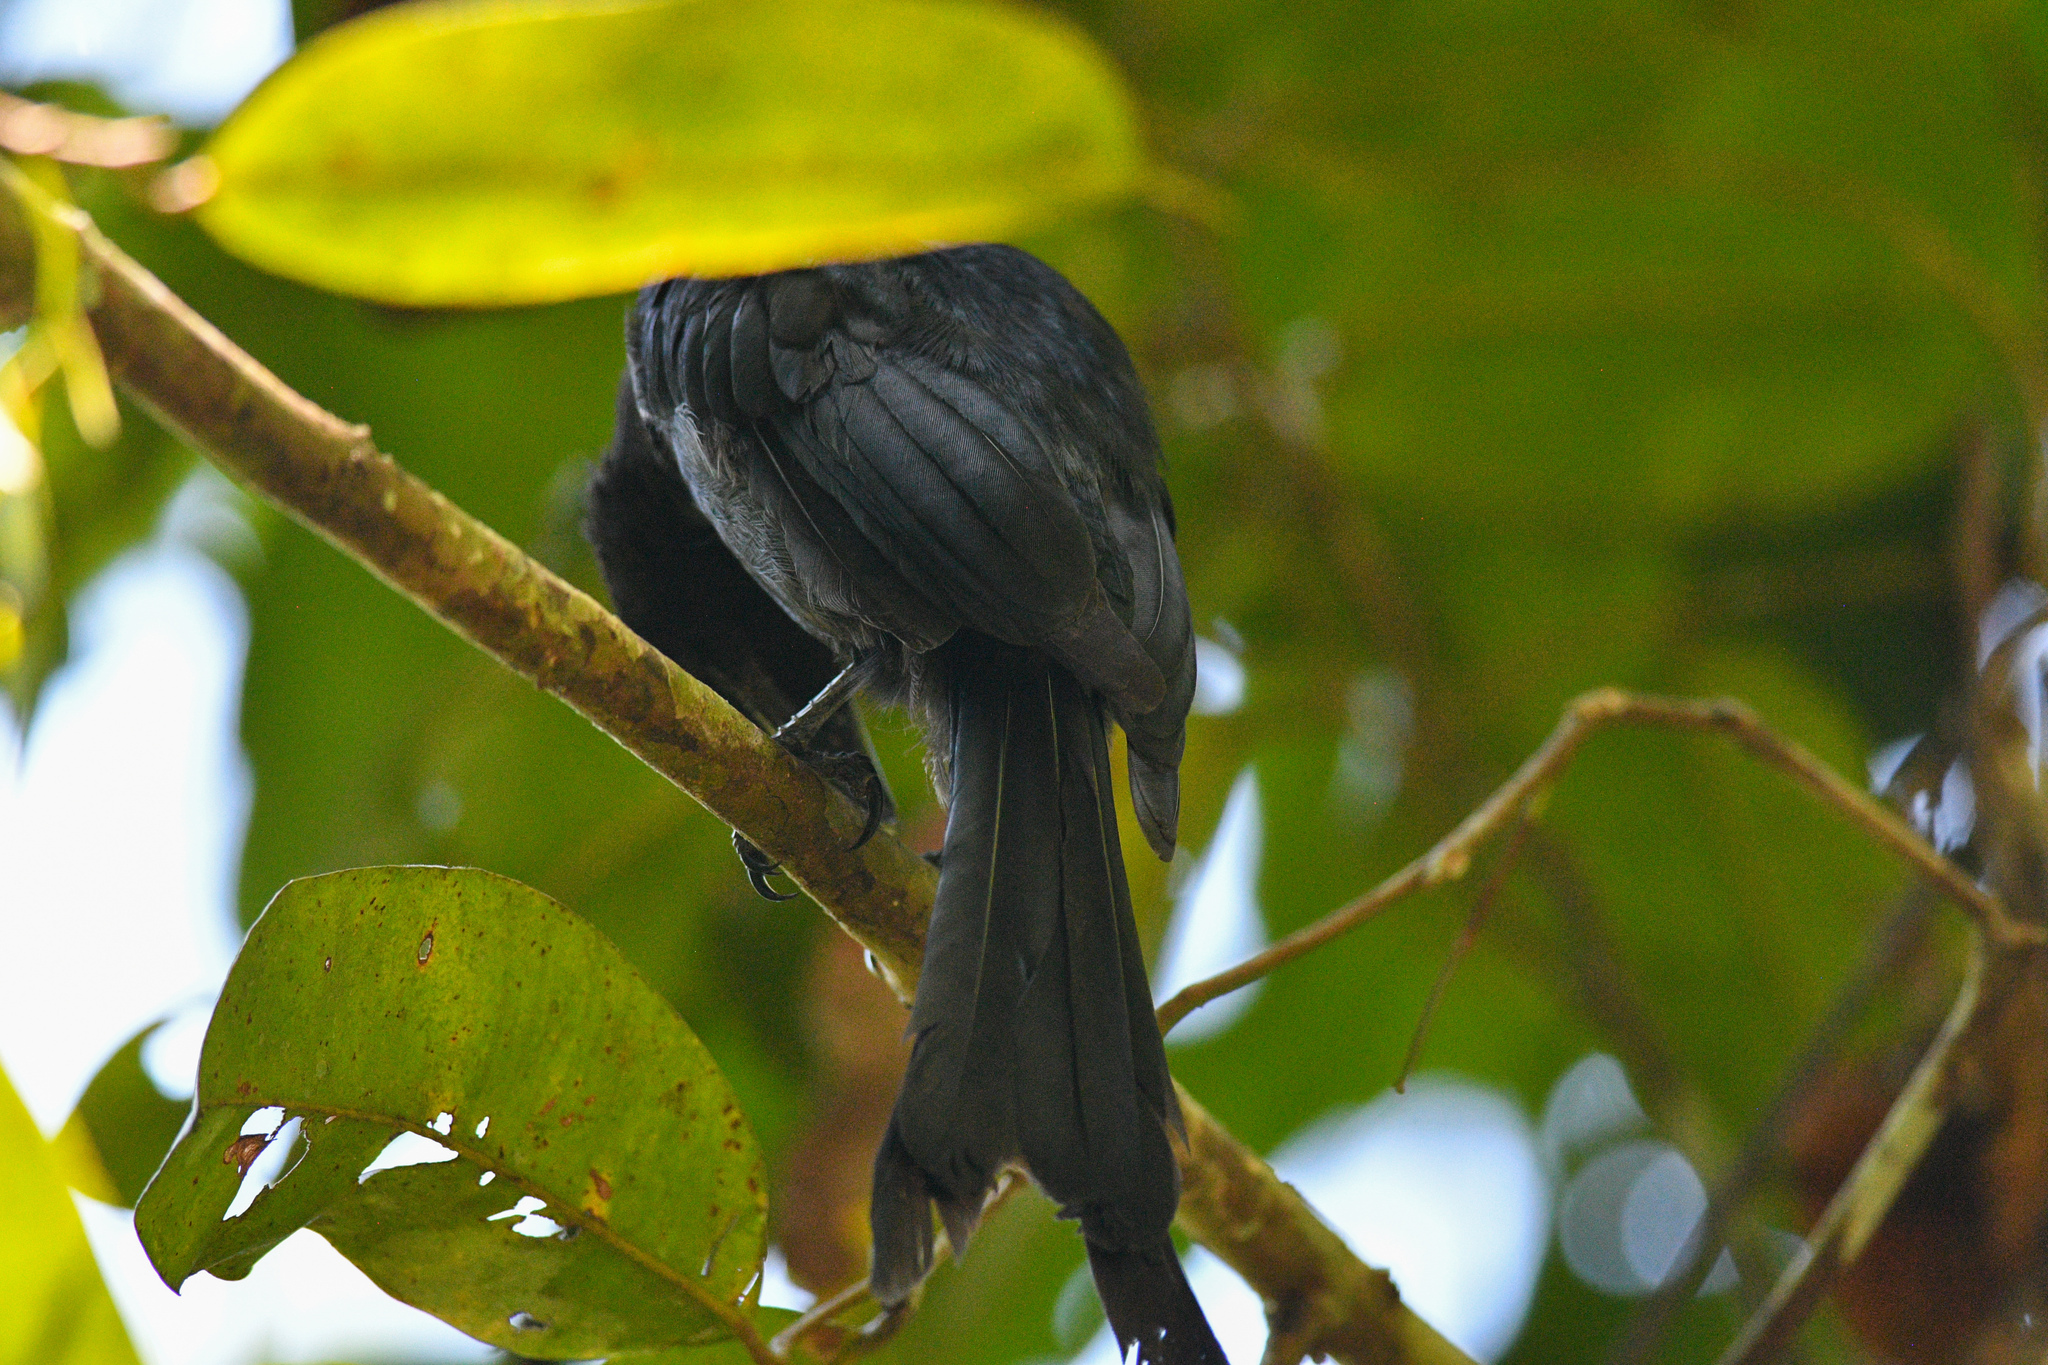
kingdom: Animalia
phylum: Chordata
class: Aves
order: Passeriformes
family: Dicruridae
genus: Dicrurus
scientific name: Dicrurus paradiseus
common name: Greater racket-tailed drongo
